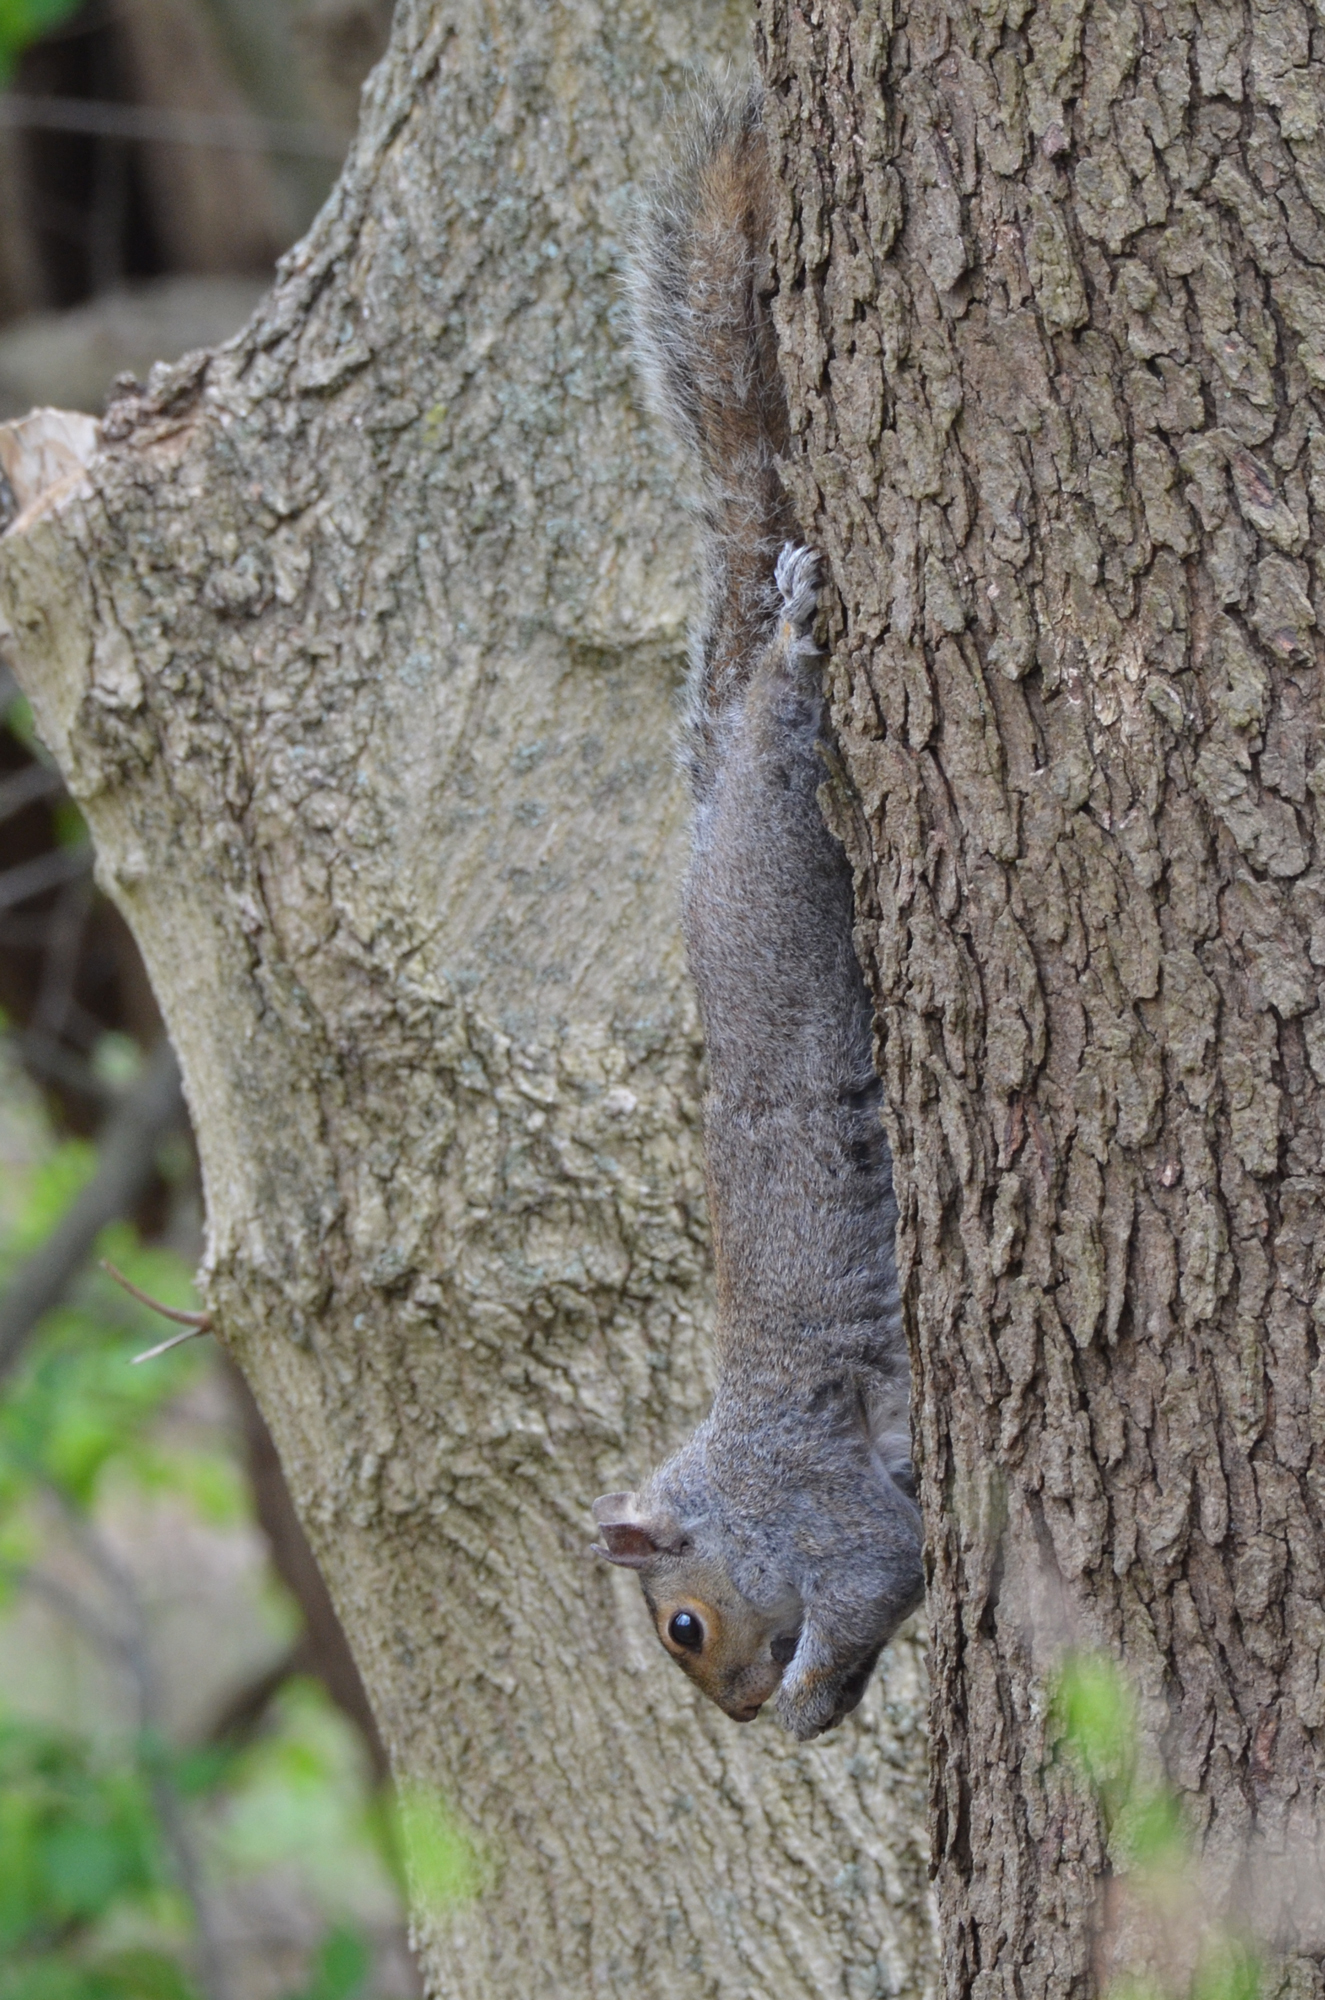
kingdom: Animalia
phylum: Chordata
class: Mammalia
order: Rodentia
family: Sciuridae
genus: Sciurus
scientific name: Sciurus carolinensis
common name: Eastern gray squirrel
